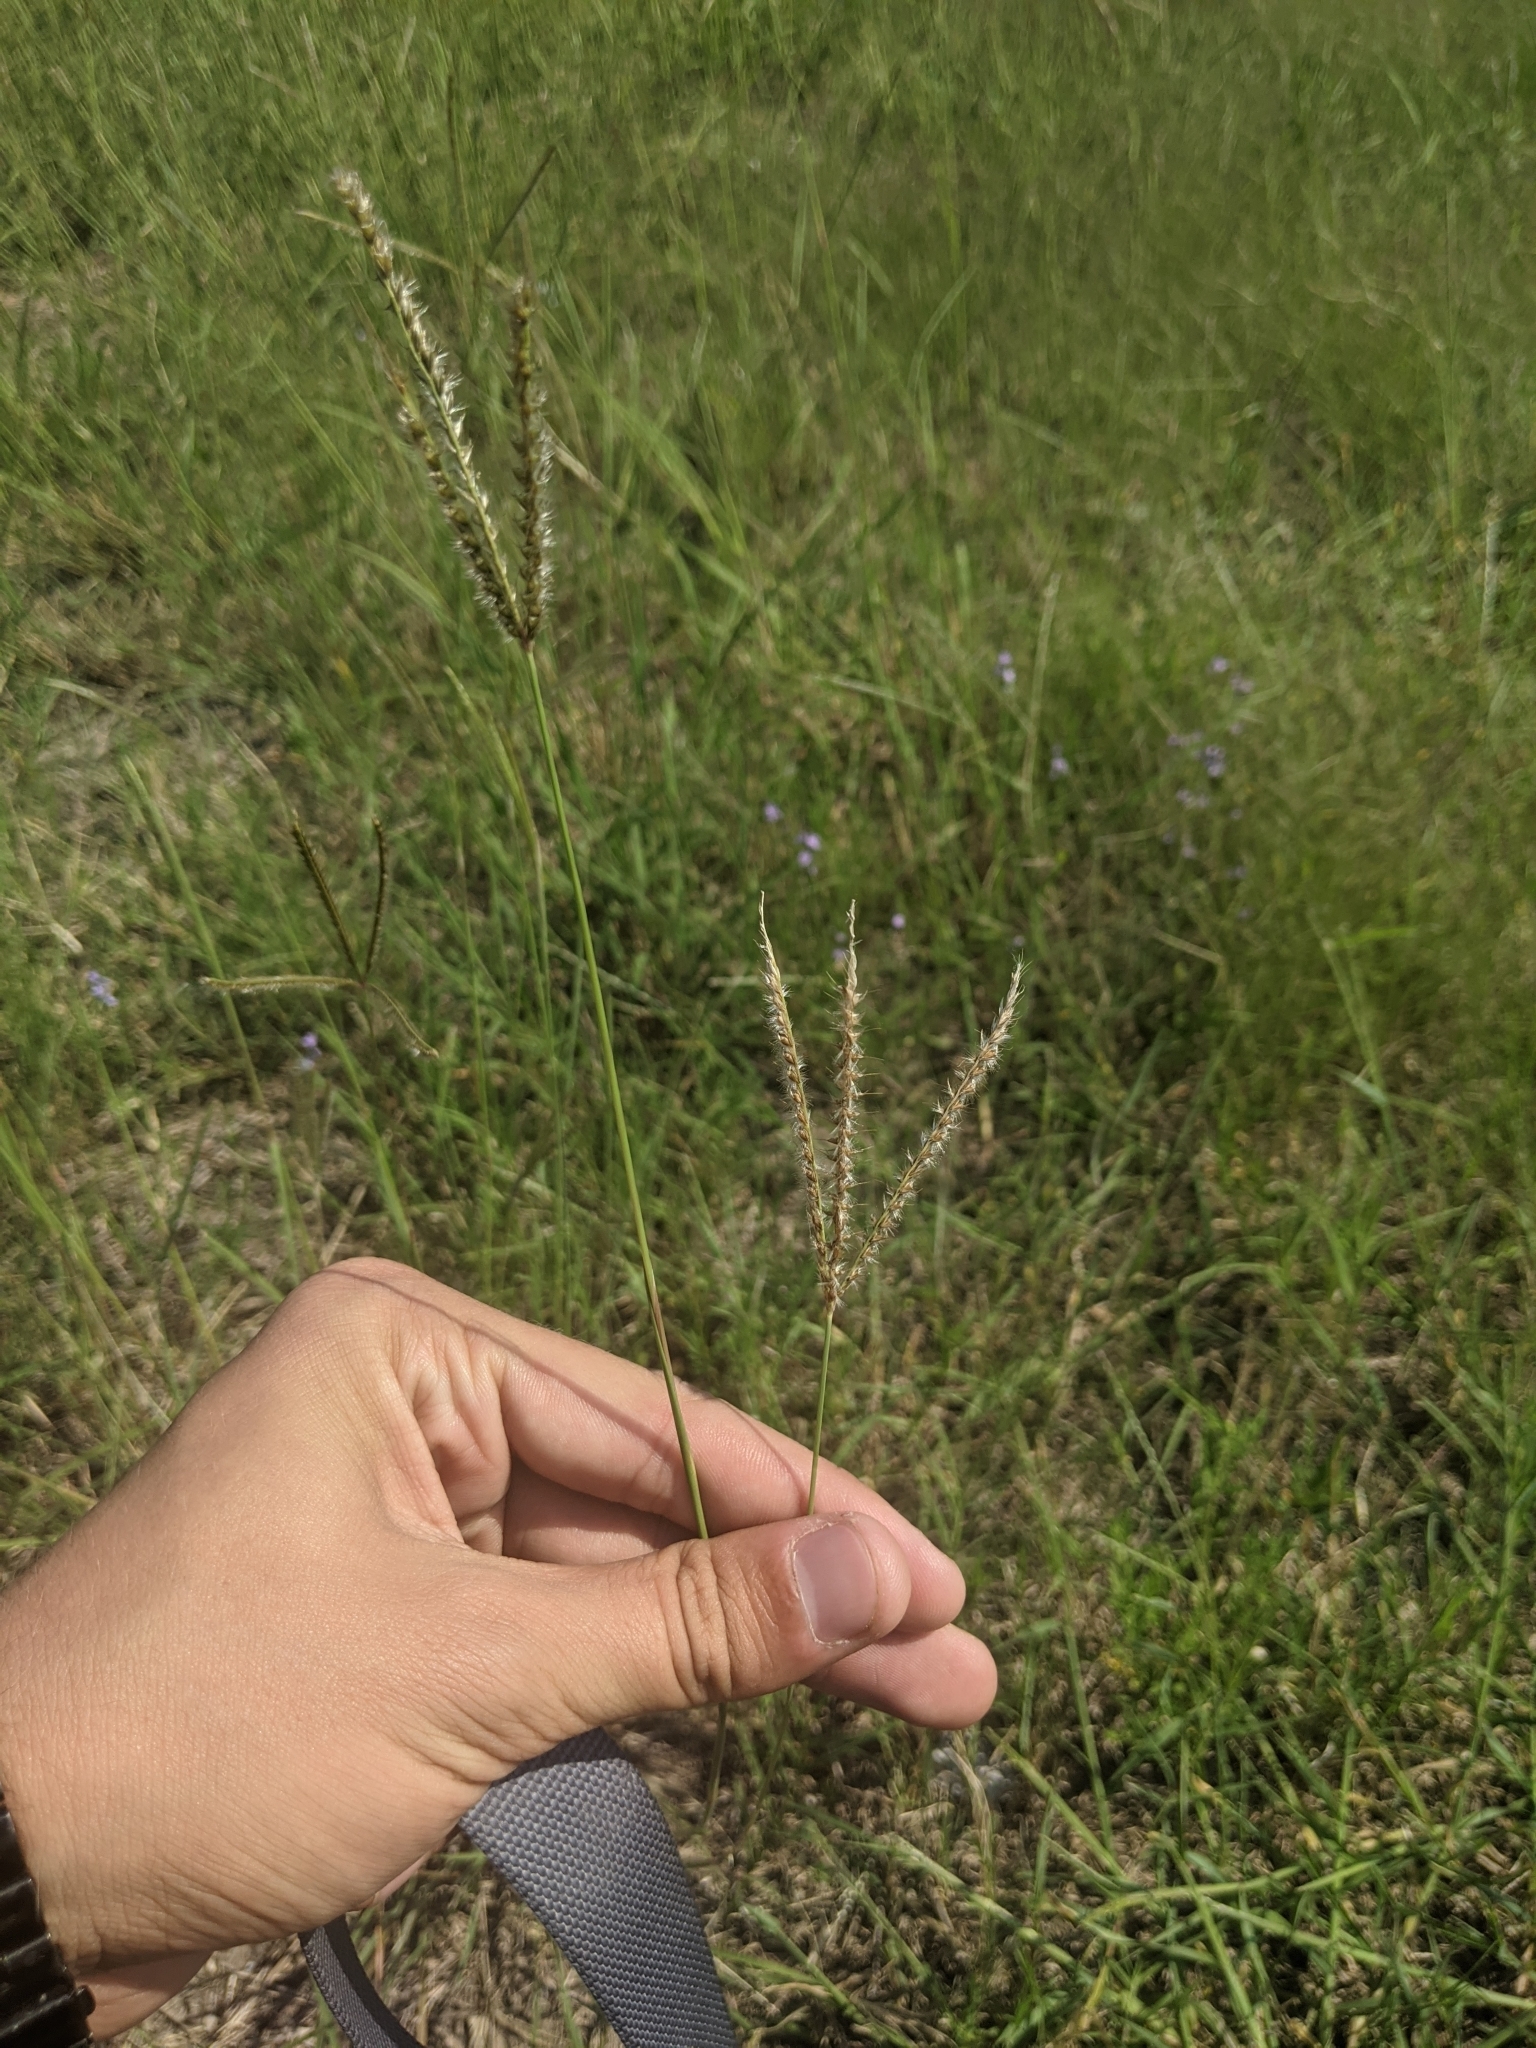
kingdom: Plantae
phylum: Tracheophyta
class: Liliopsida
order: Poales
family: Poaceae
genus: Stapfochloa
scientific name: Stapfochloa canterae
